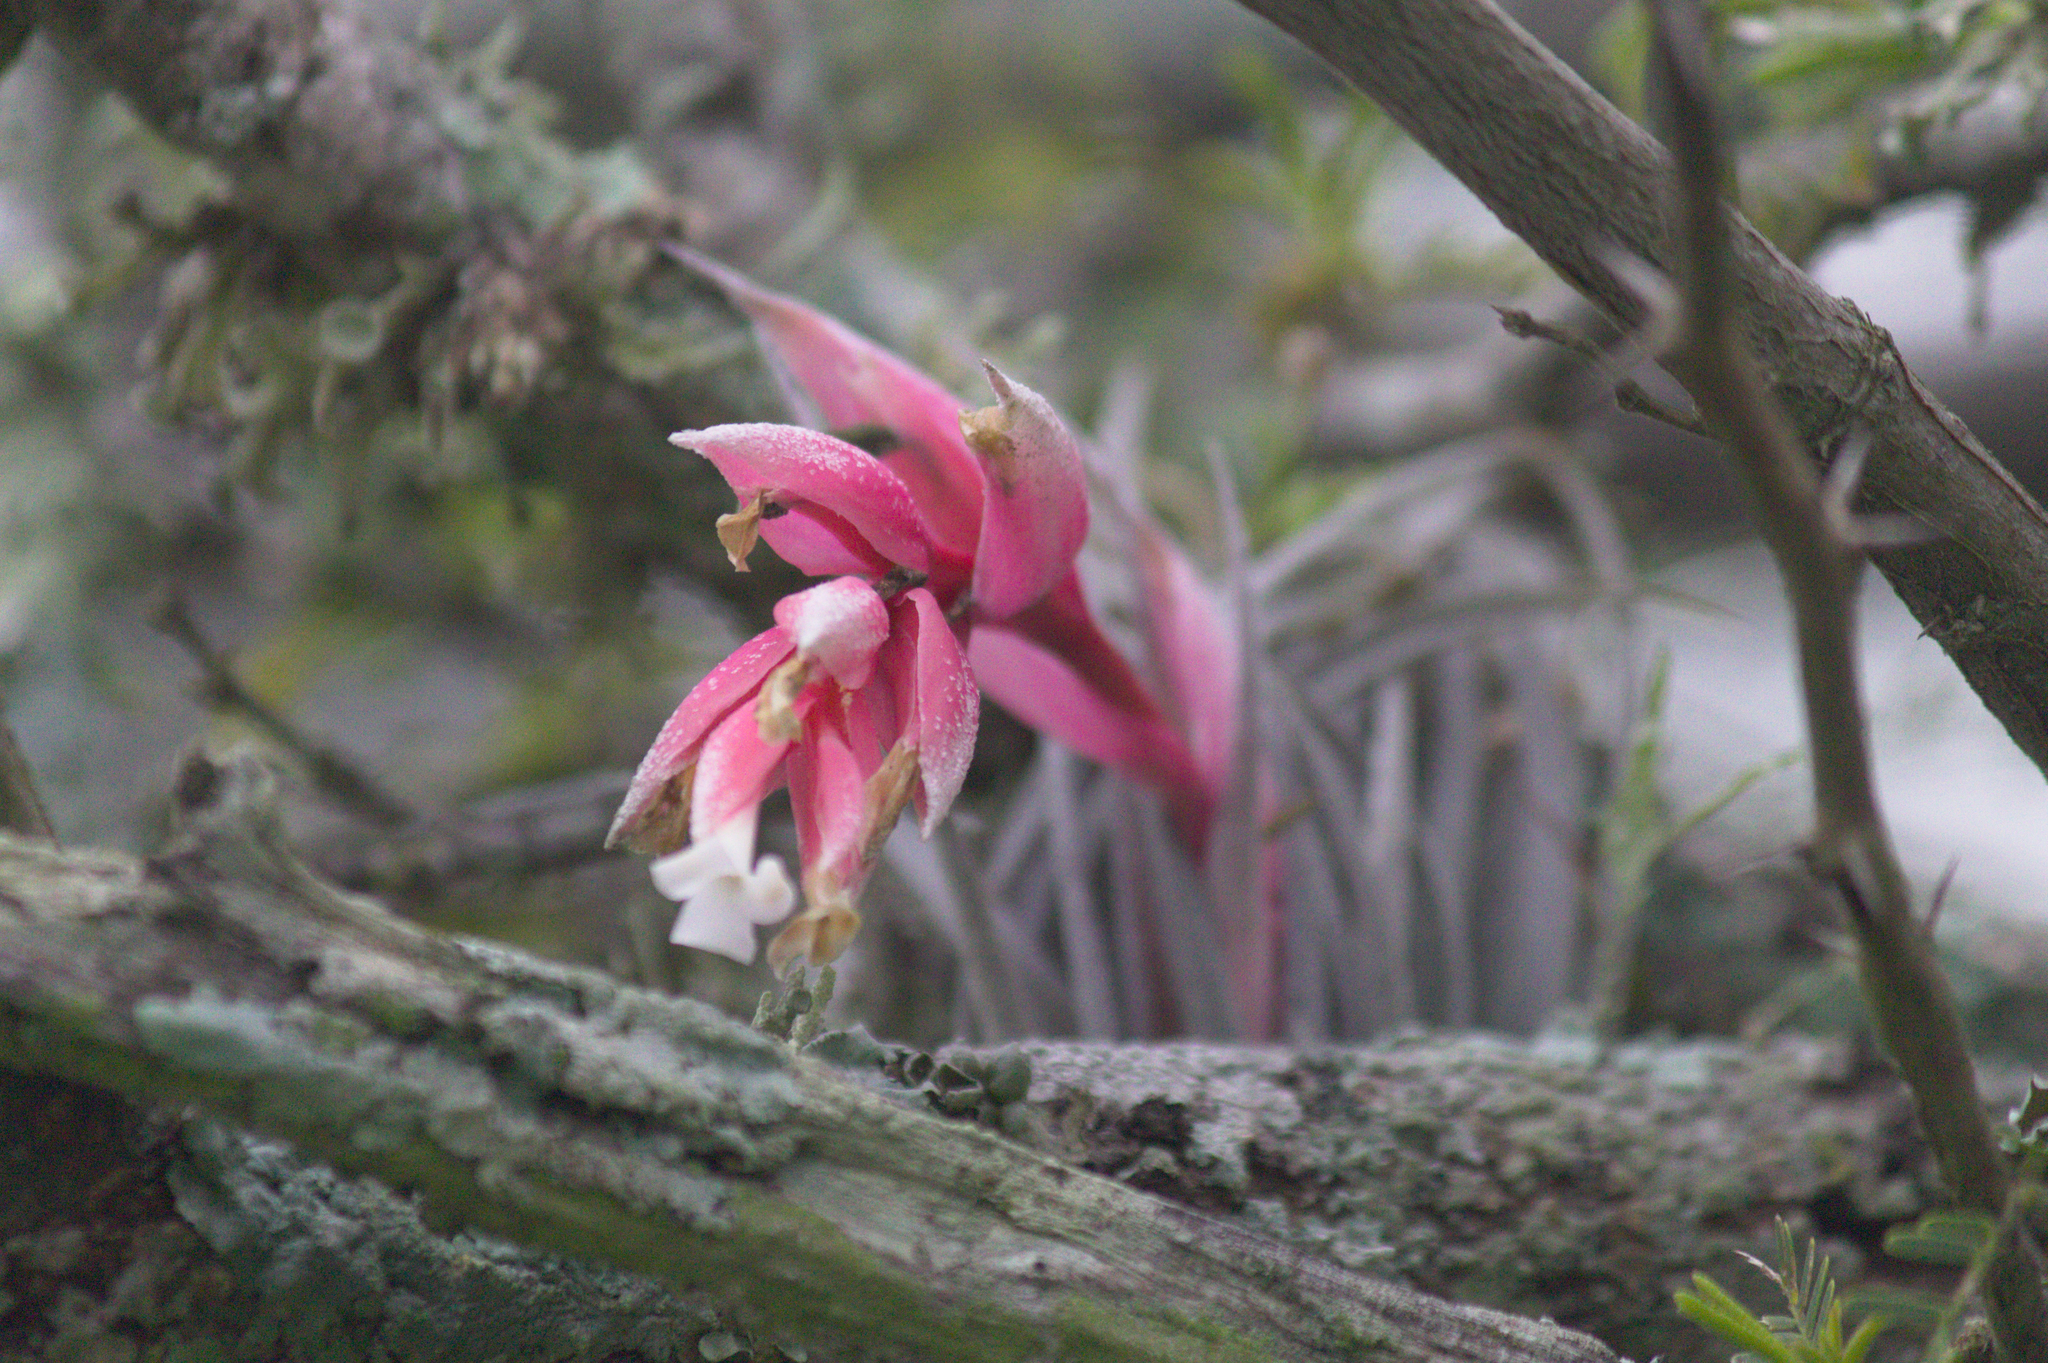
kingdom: Plantae
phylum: Tracheophyta
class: Liliopsida
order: Poales
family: Bromeliaceae
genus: Tillandsia
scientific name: Tillandsia recurvifolia
